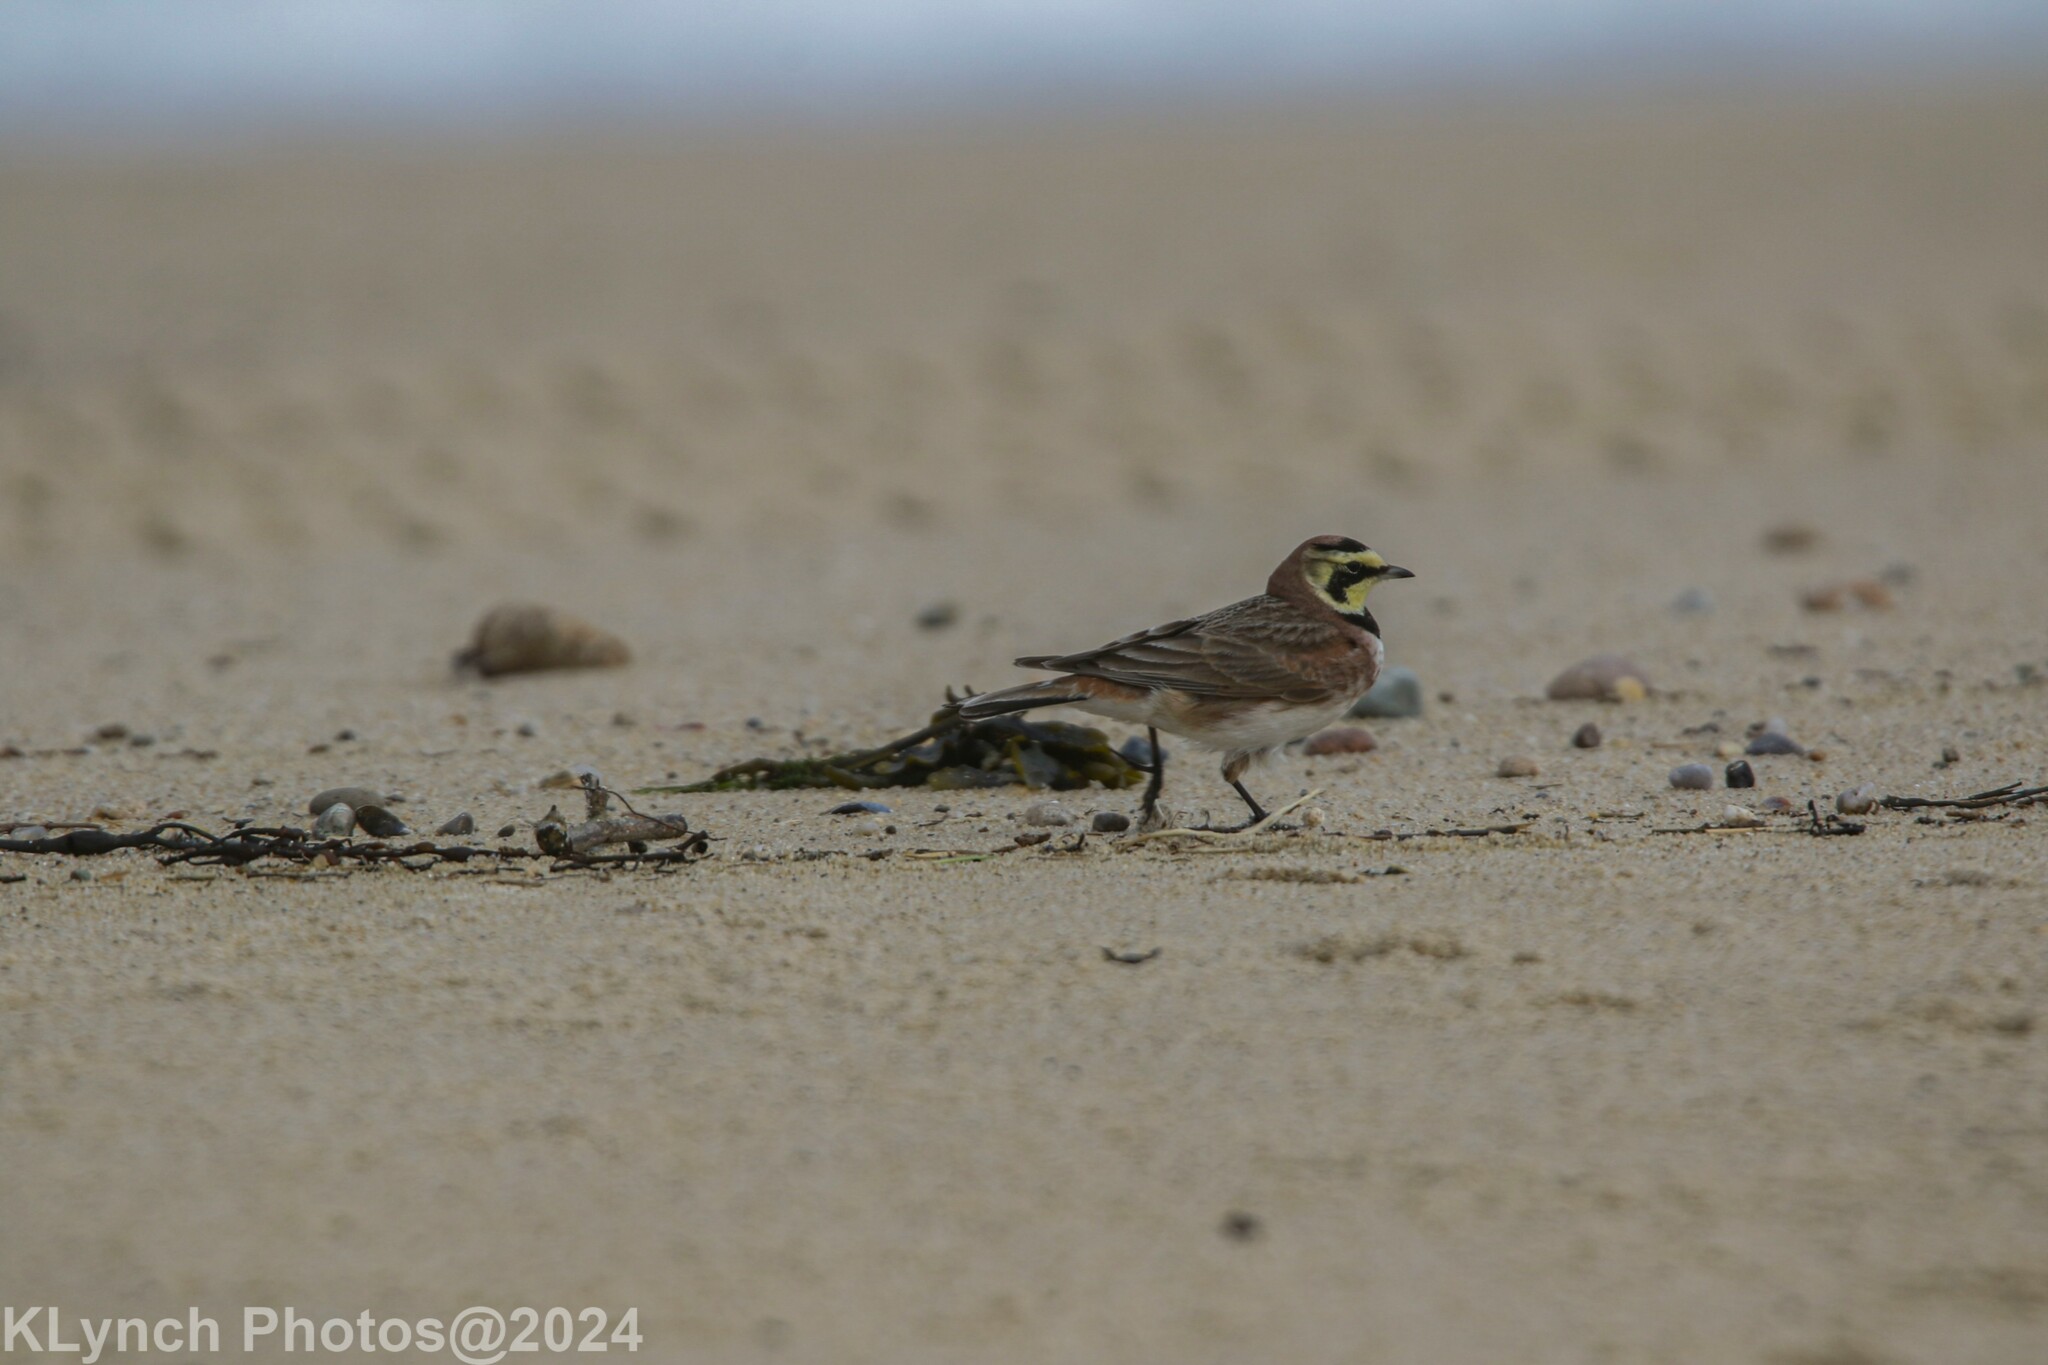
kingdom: Animalia
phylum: Chordata
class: Aves
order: Passeriformes
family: Alaudidae
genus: Eremophila
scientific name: Eremophila alpestris
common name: Horned lark
